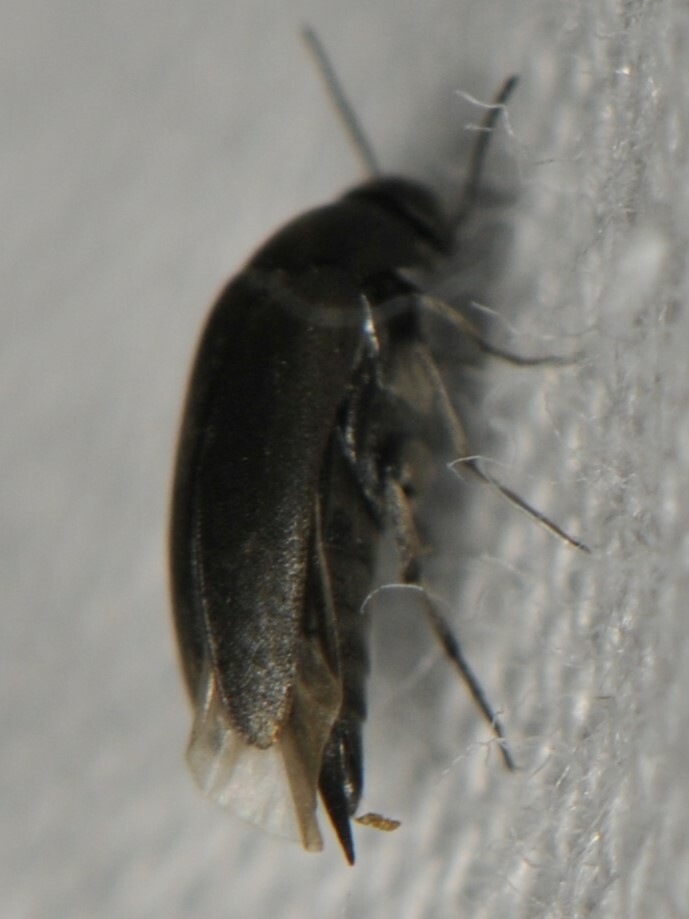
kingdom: Animalia
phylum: Arthropoda
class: Insecta
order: Coleoptera
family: Mordellidae
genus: Mordellistena
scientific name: Mordellistena
